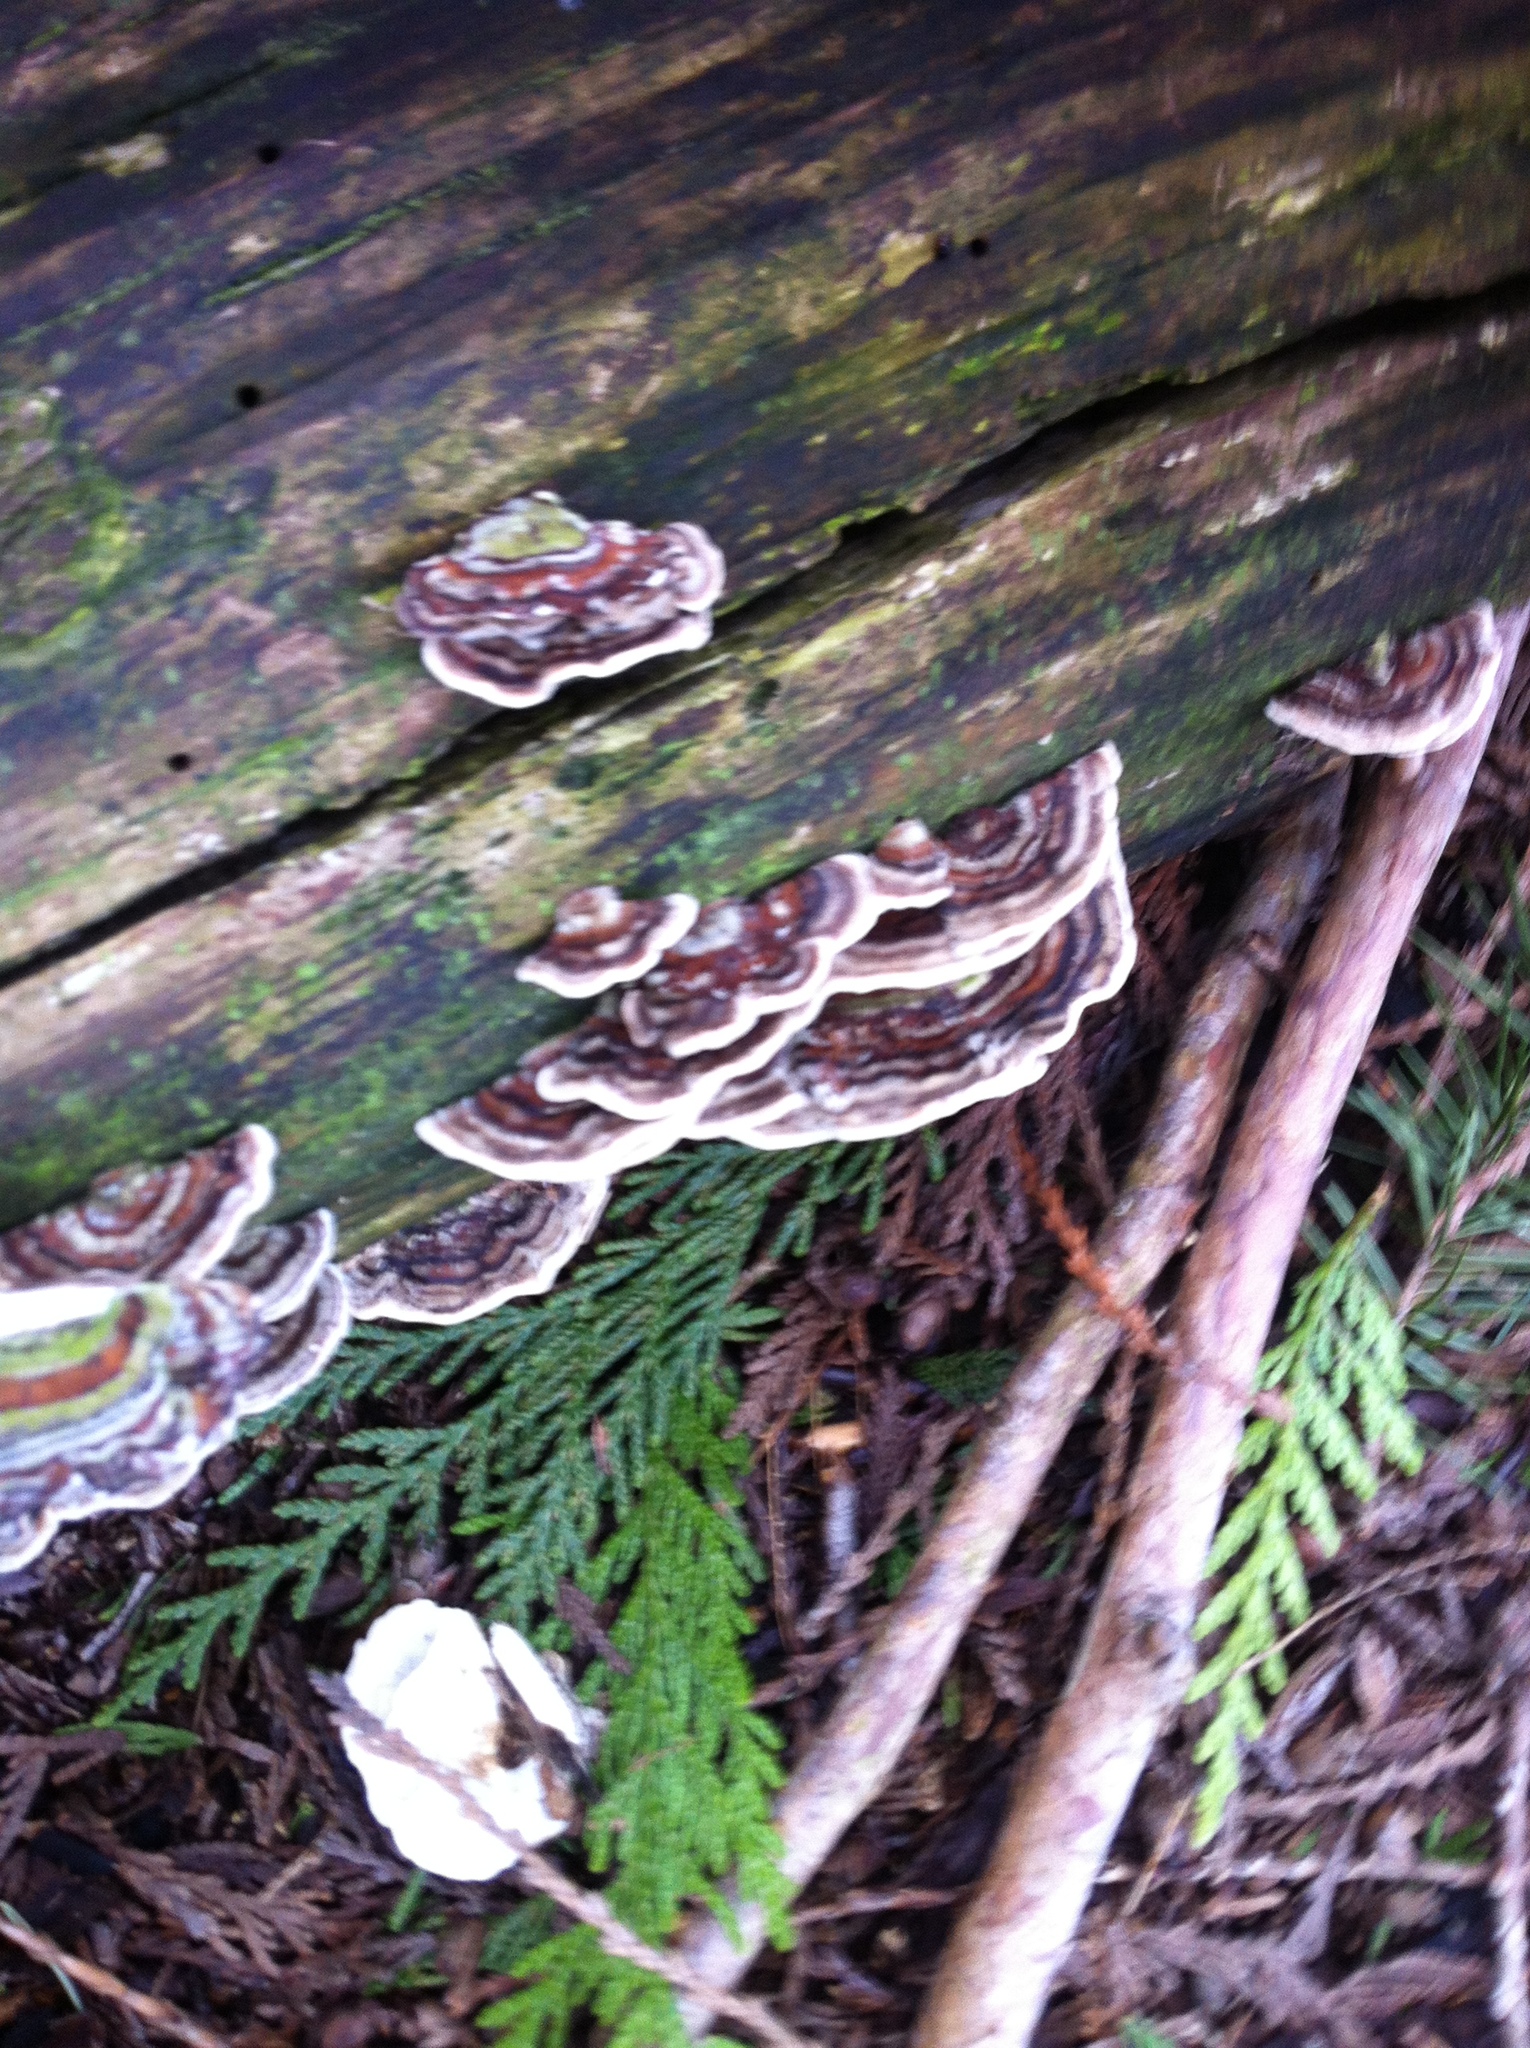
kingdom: Fungi
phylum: Basidiomycota
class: Agaricomycetes
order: Polyporales
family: Polyporaceae
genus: Trametes
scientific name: Trametes versicolor
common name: Turkeytail
